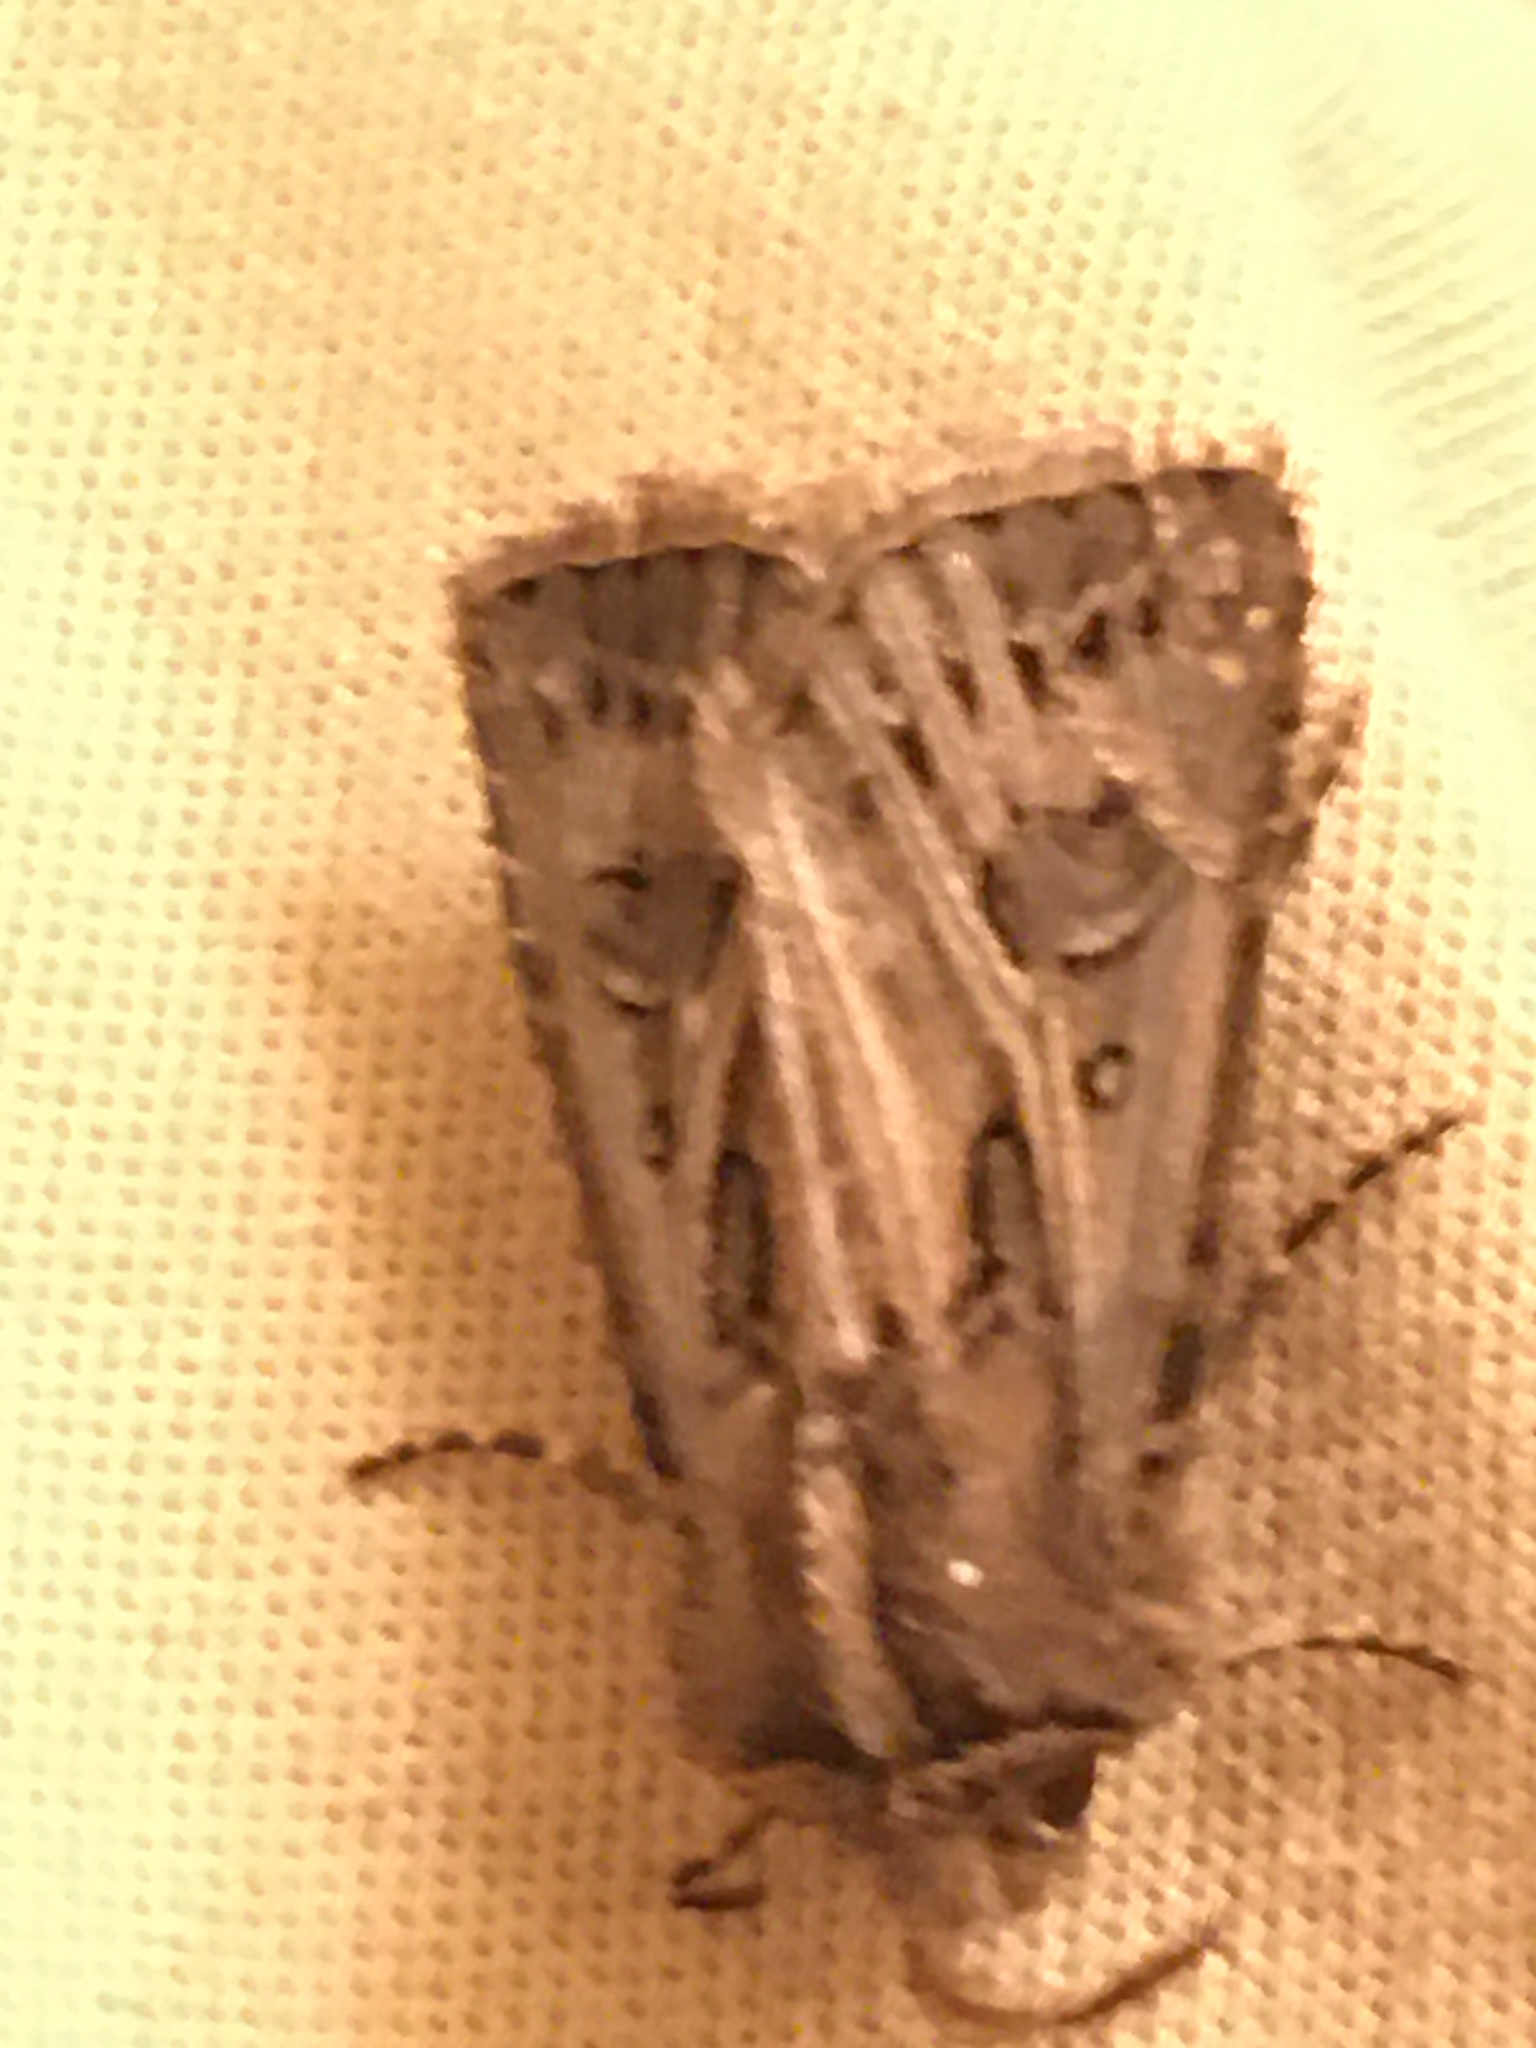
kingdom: Animalia
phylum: Arthropoda
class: Insecta
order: Lepidoptera
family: Noctuidae
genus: Agrotis
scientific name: Agrotis gladiaria
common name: Claybacked cutworm
